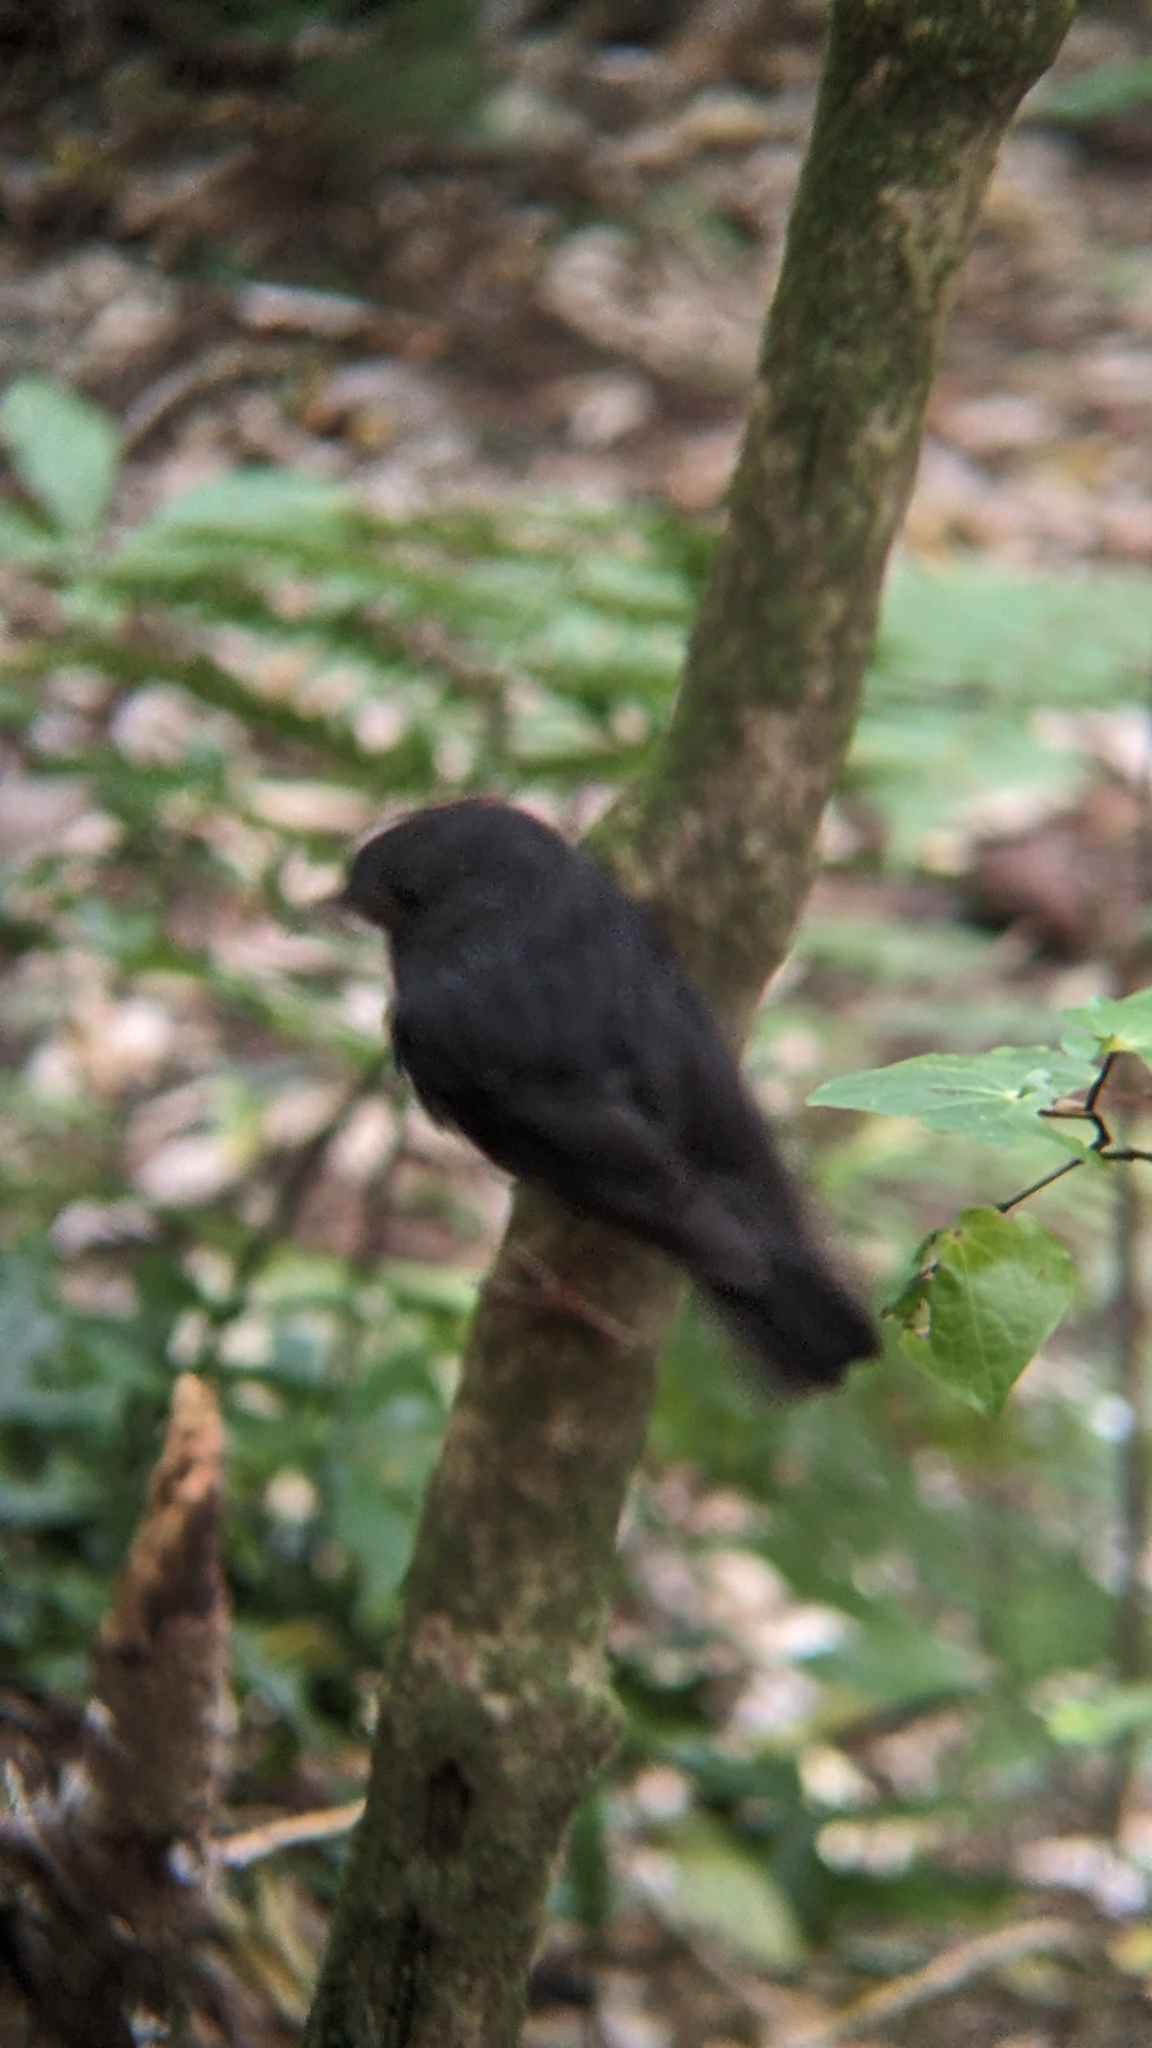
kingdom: Animalia
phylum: Chordata
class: Aves
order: Passeriformes
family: Petroicidae
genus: Petroica
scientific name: Petroica australis
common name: New zealand robin
